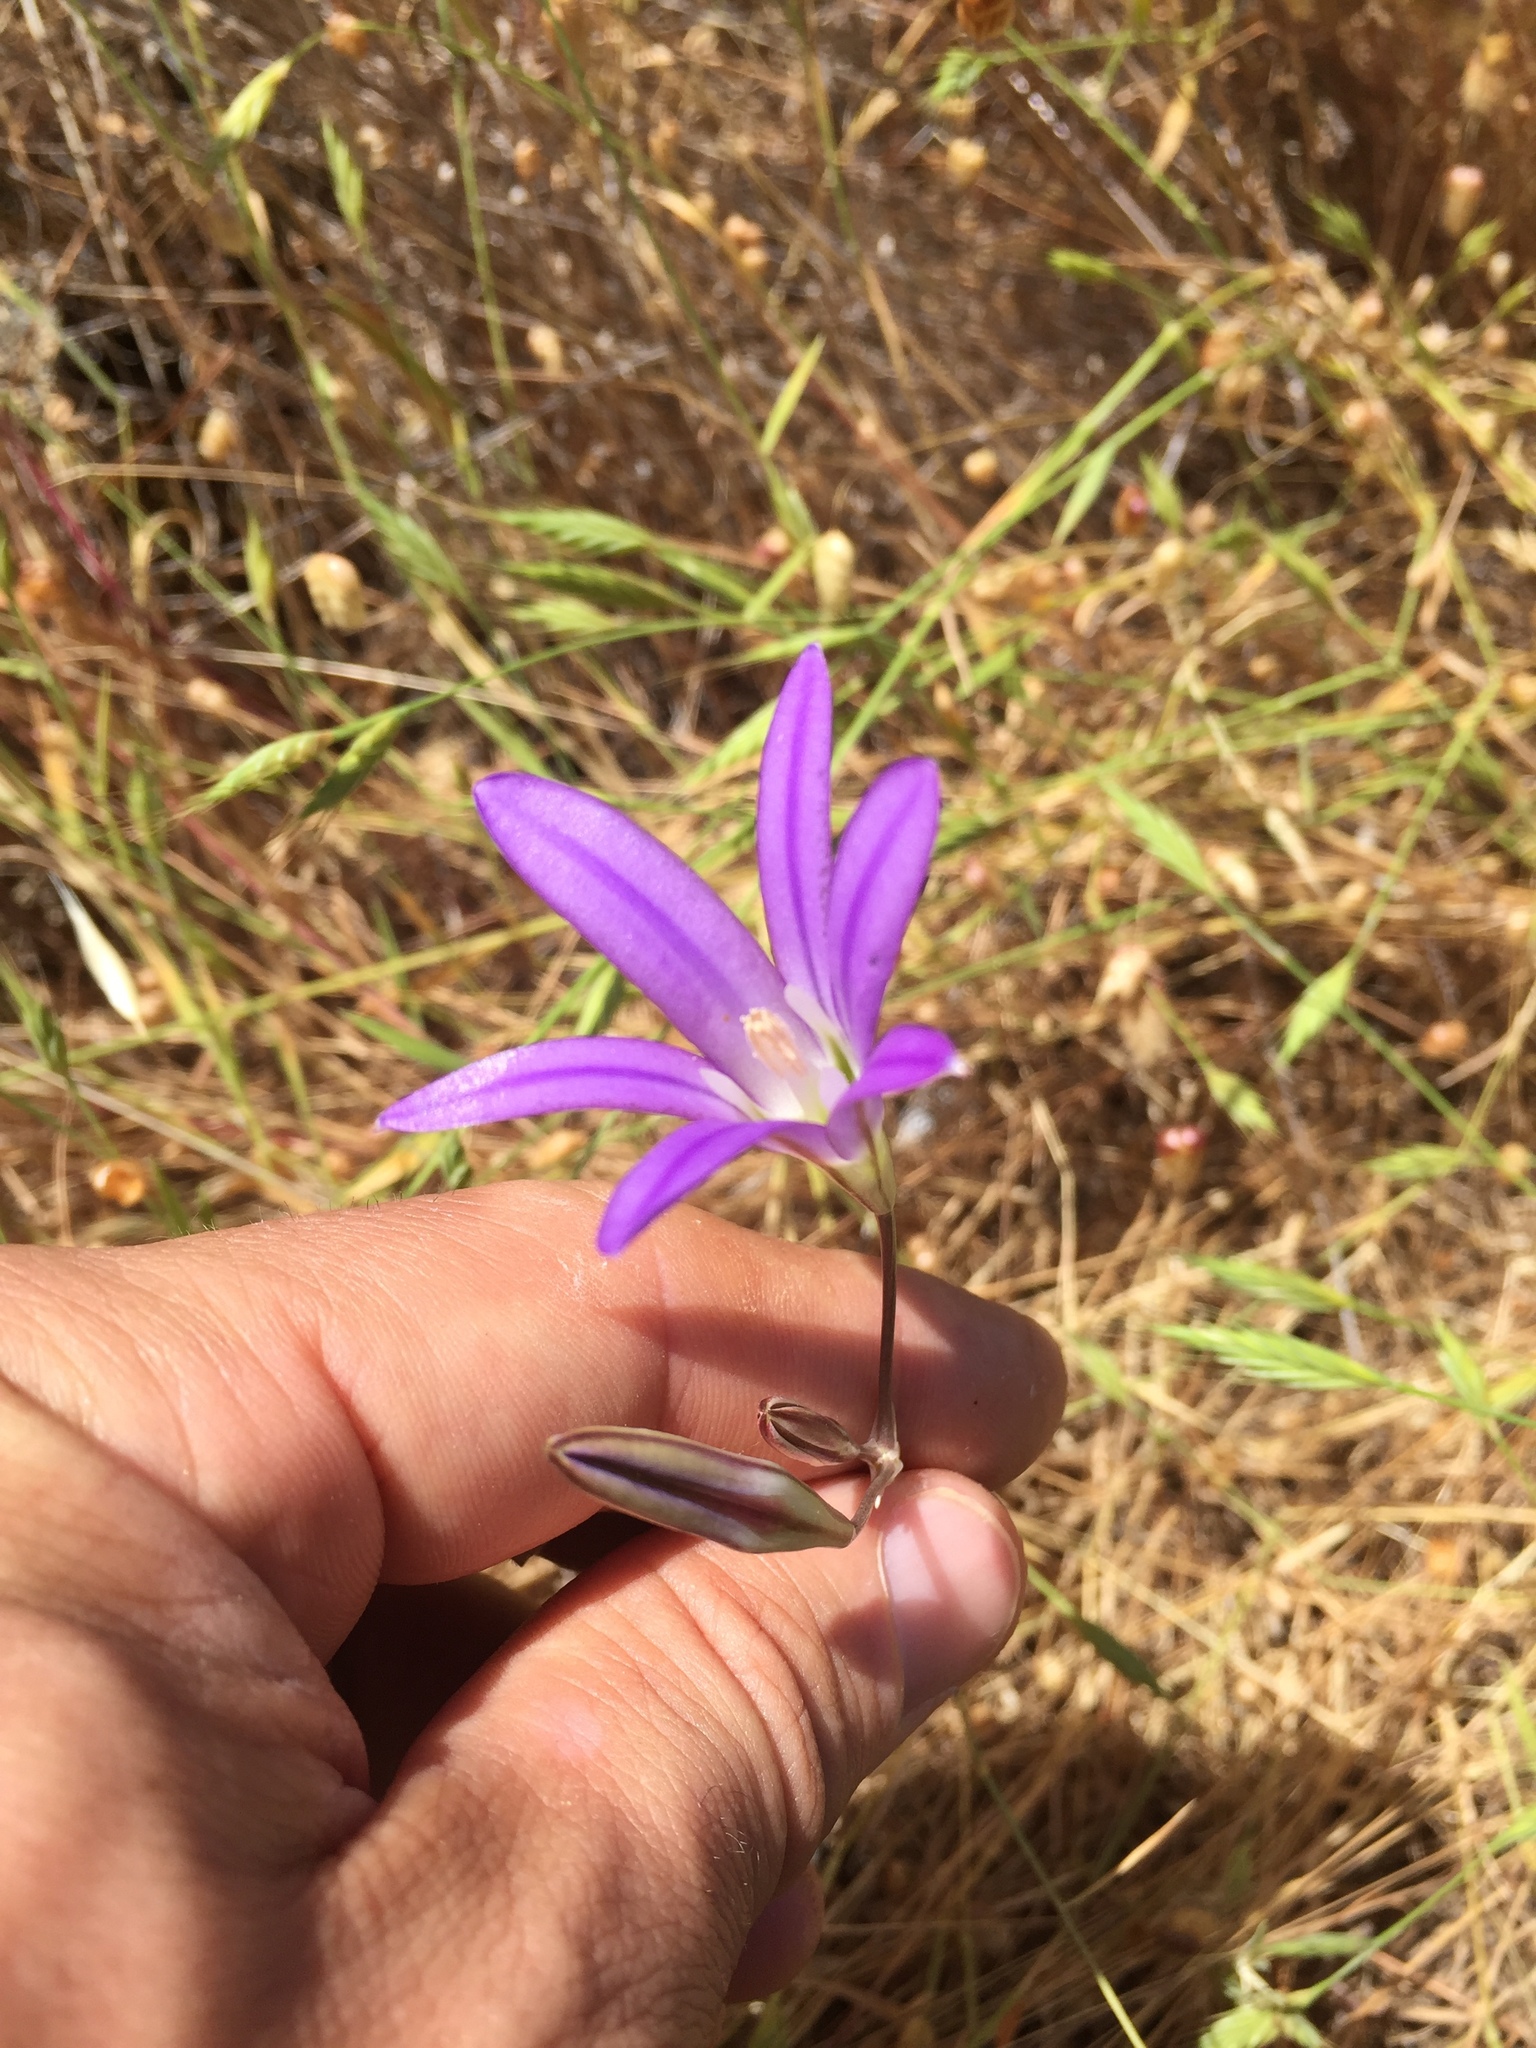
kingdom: Plantae
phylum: Tracheophyta
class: Liliopsida
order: Asparagales
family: Asparagaceae
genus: Brodiaea
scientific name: Brodiaea elegans
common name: Elegant cluster-lily
